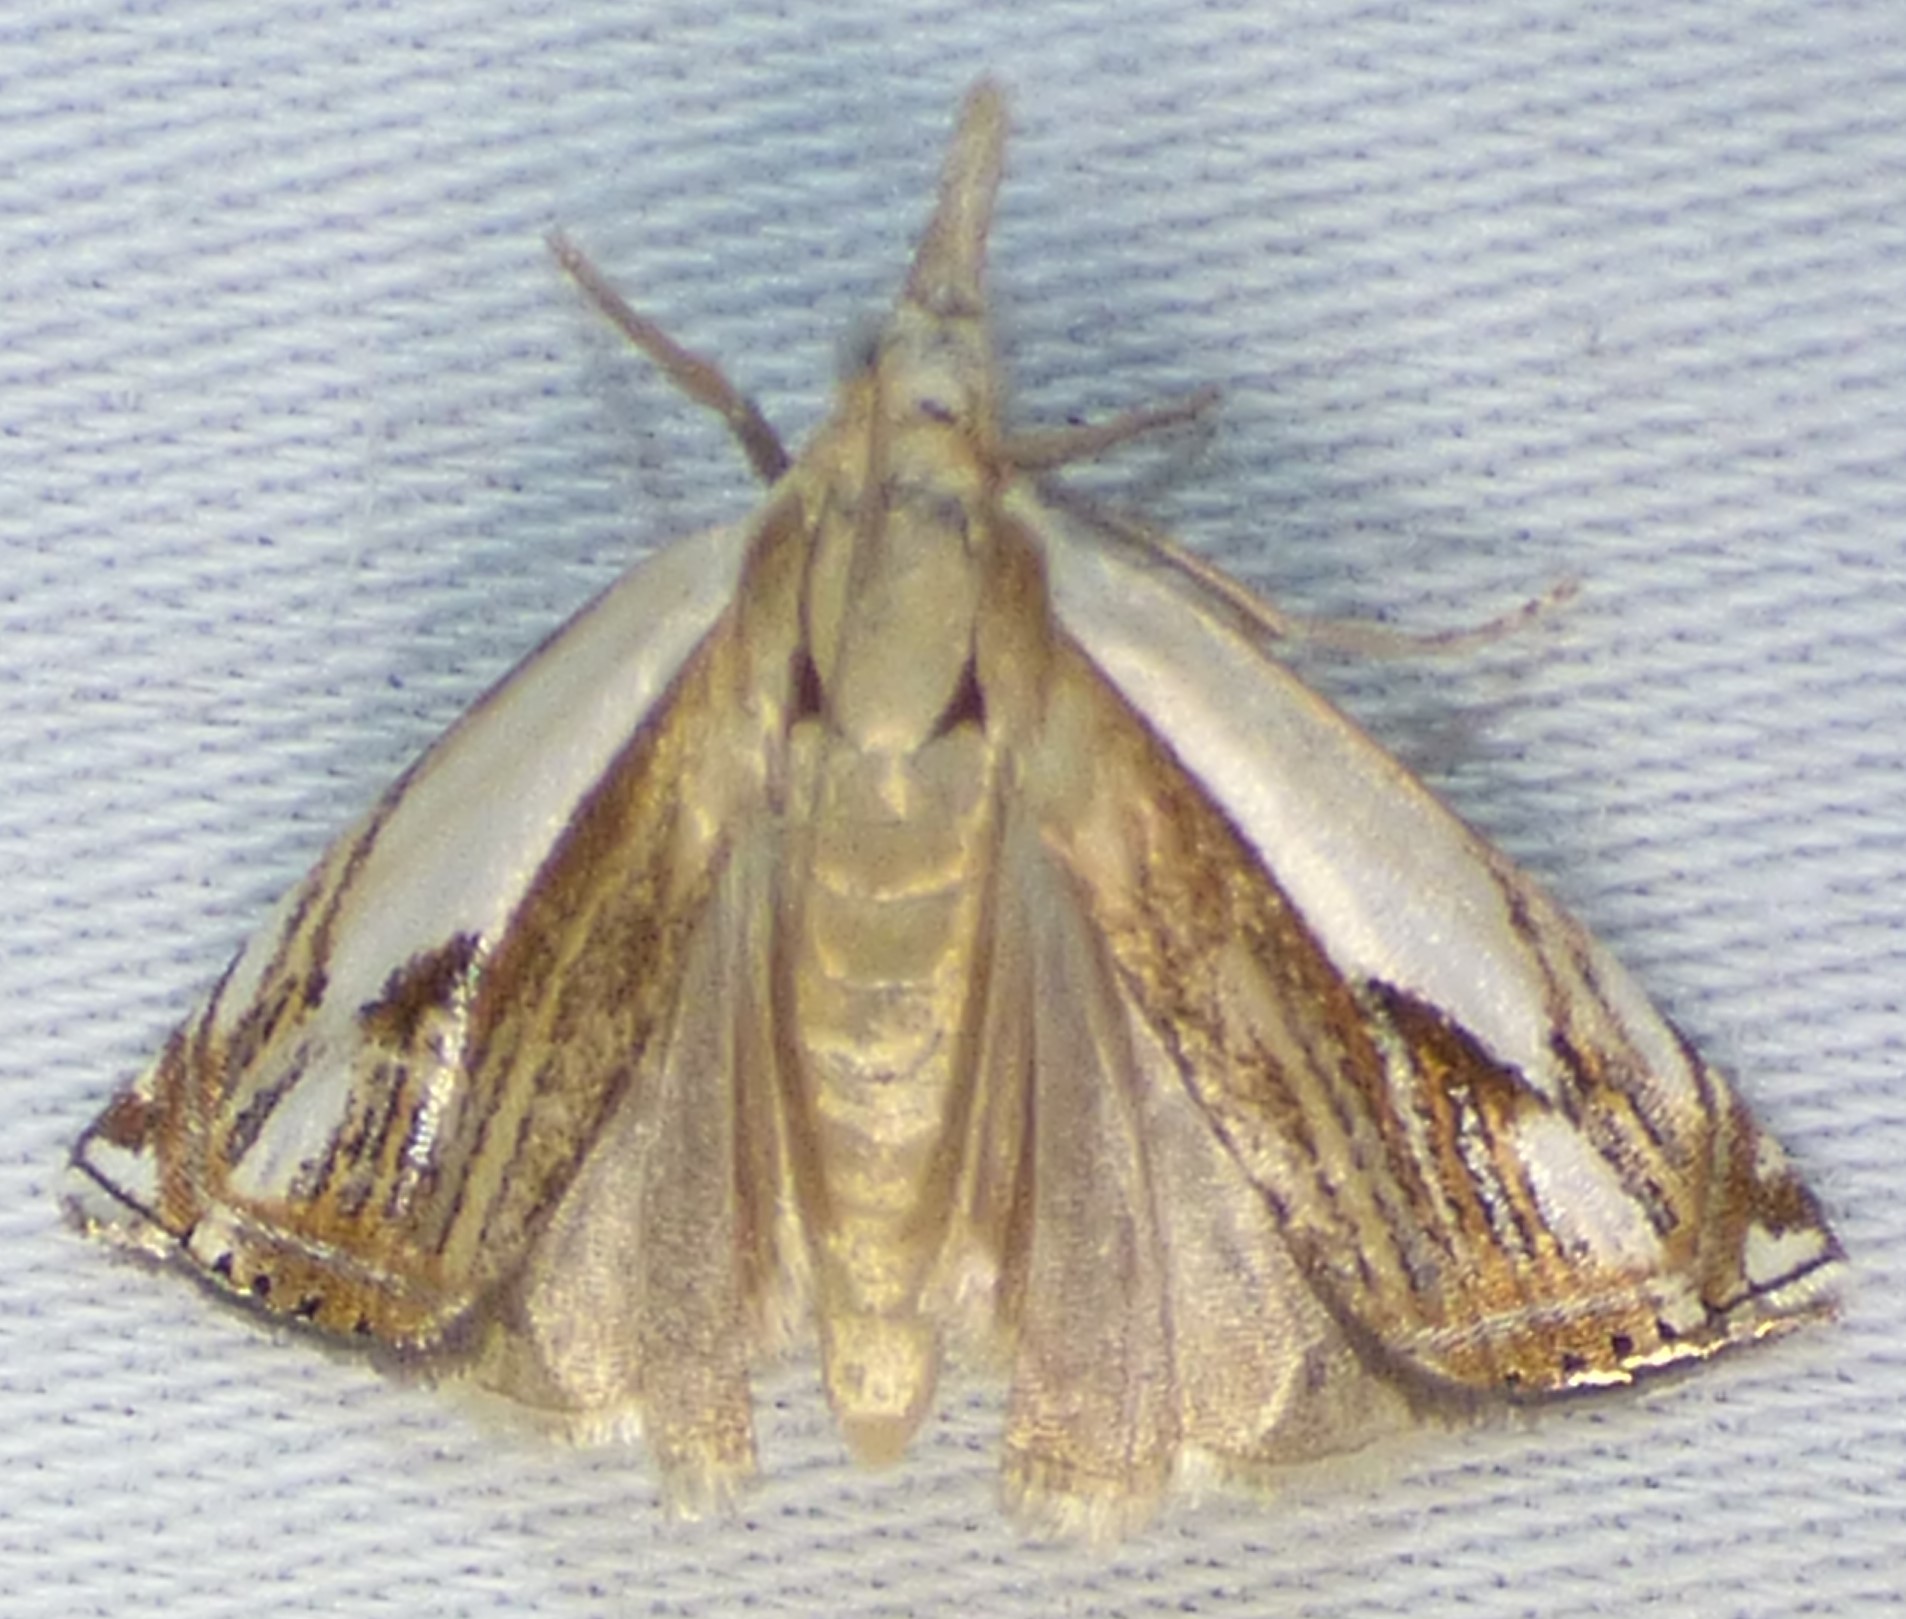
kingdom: Animalia
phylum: Arthropoda
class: Insecta
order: Lepidoptera
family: Crambidae
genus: Crambus
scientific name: Crambus agitatellus
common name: Double-banded grass-veneer
